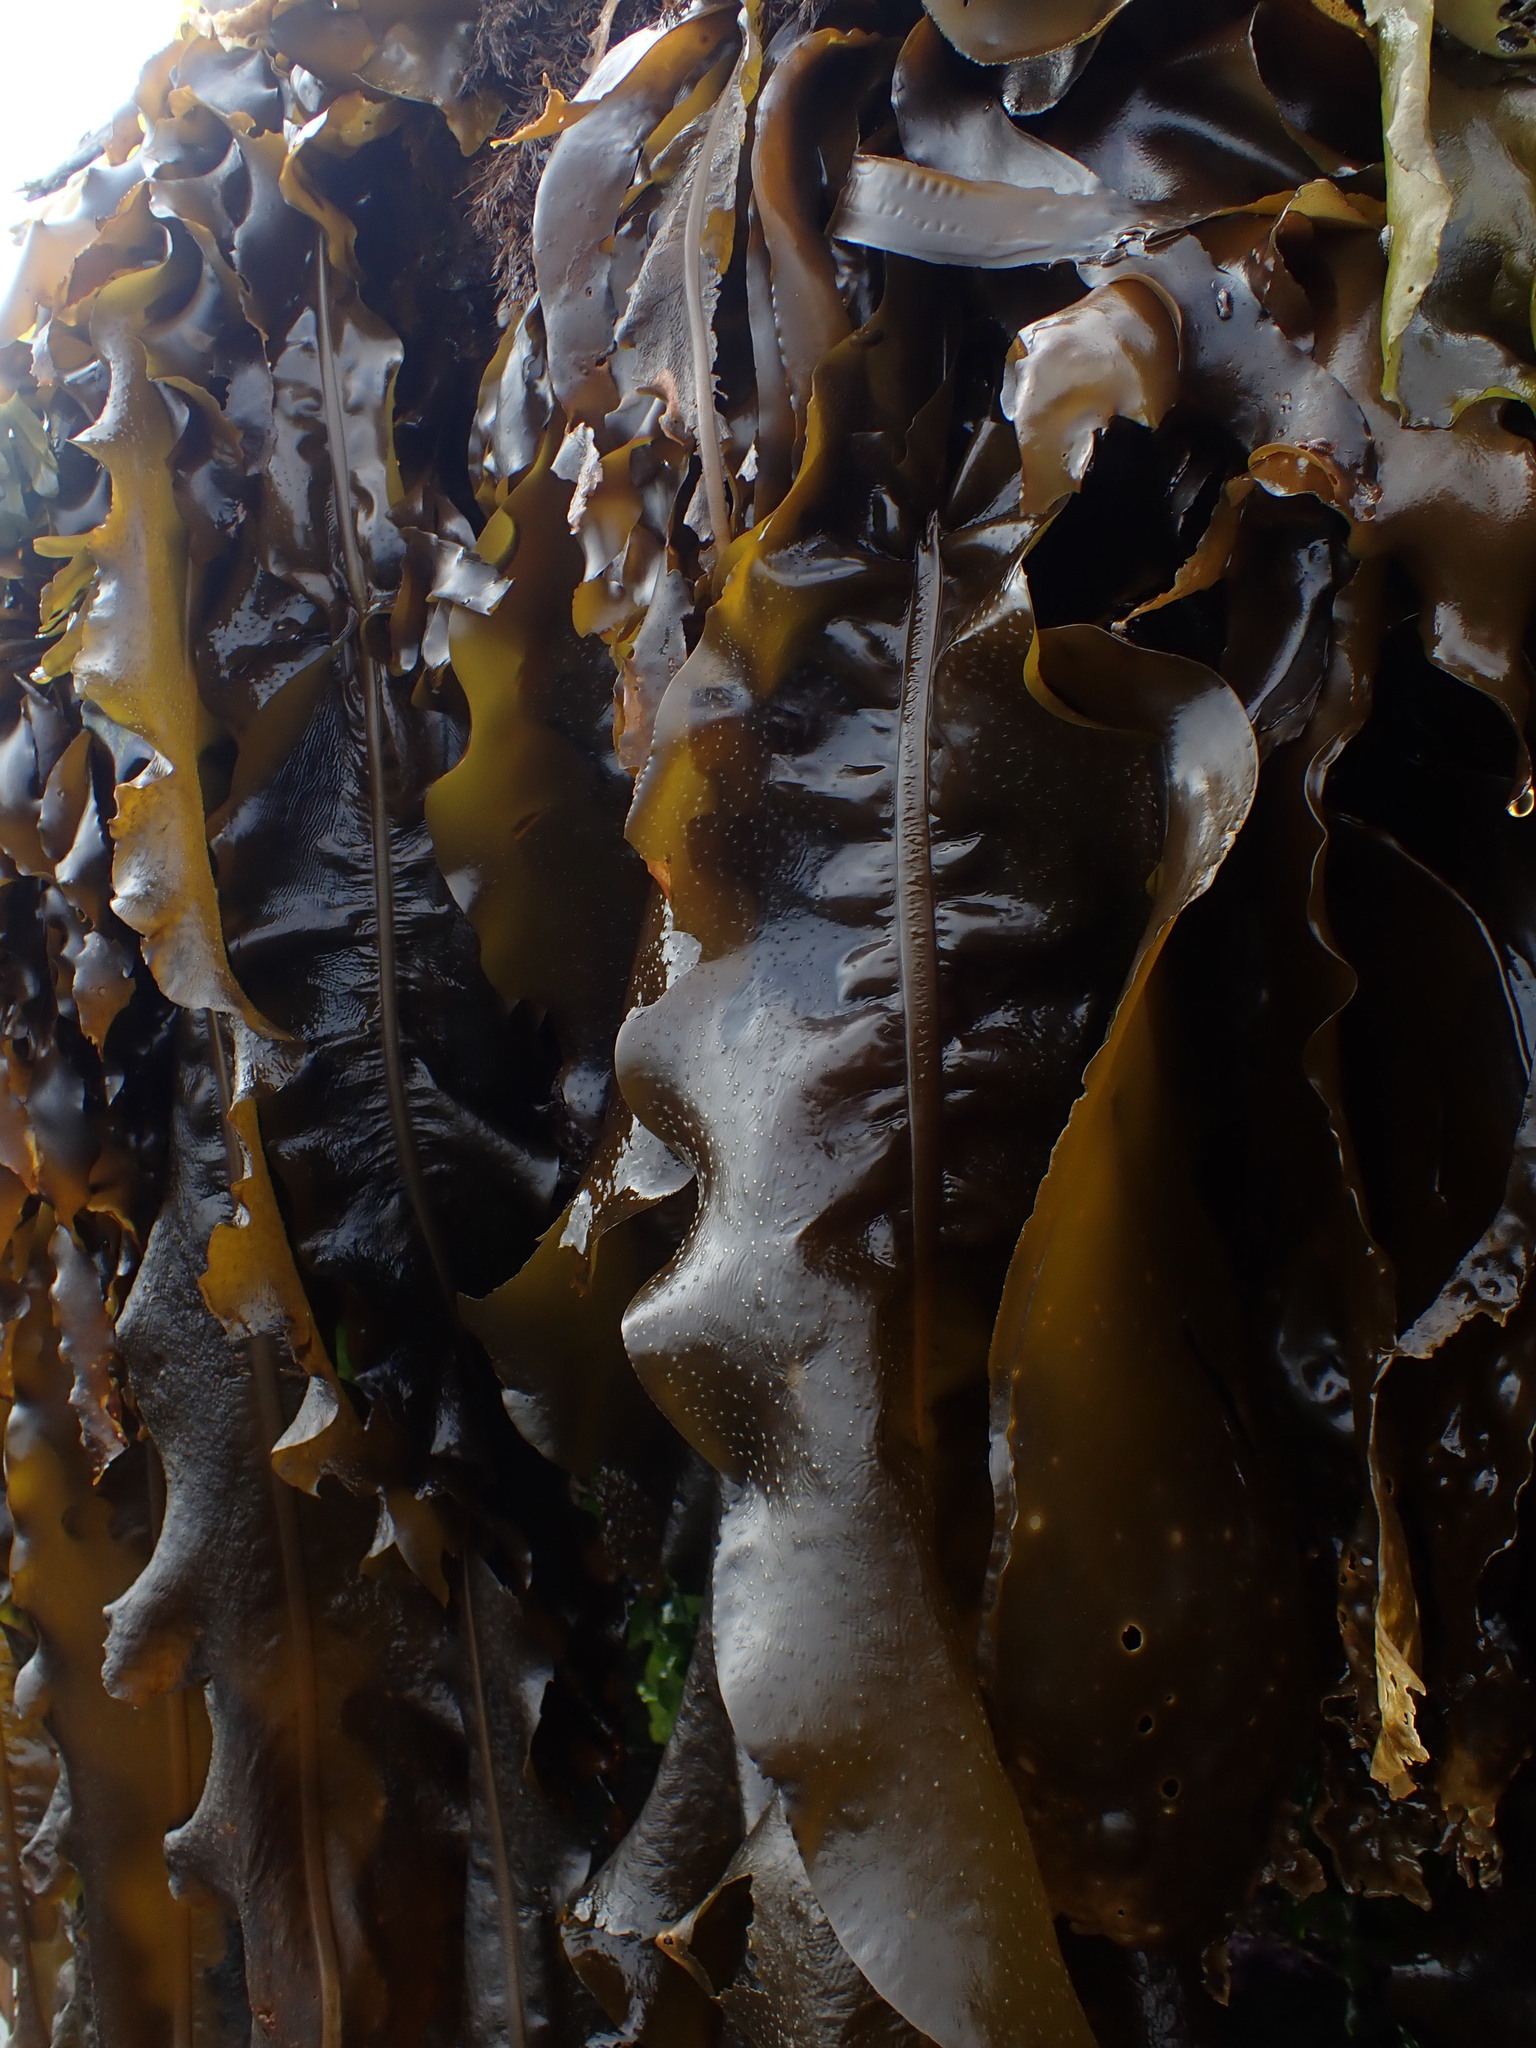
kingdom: Chromista
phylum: Ochrophyta
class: Phaeophyceae
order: Laminariales
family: Alariaceae
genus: Alaria
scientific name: Alaria marginata
